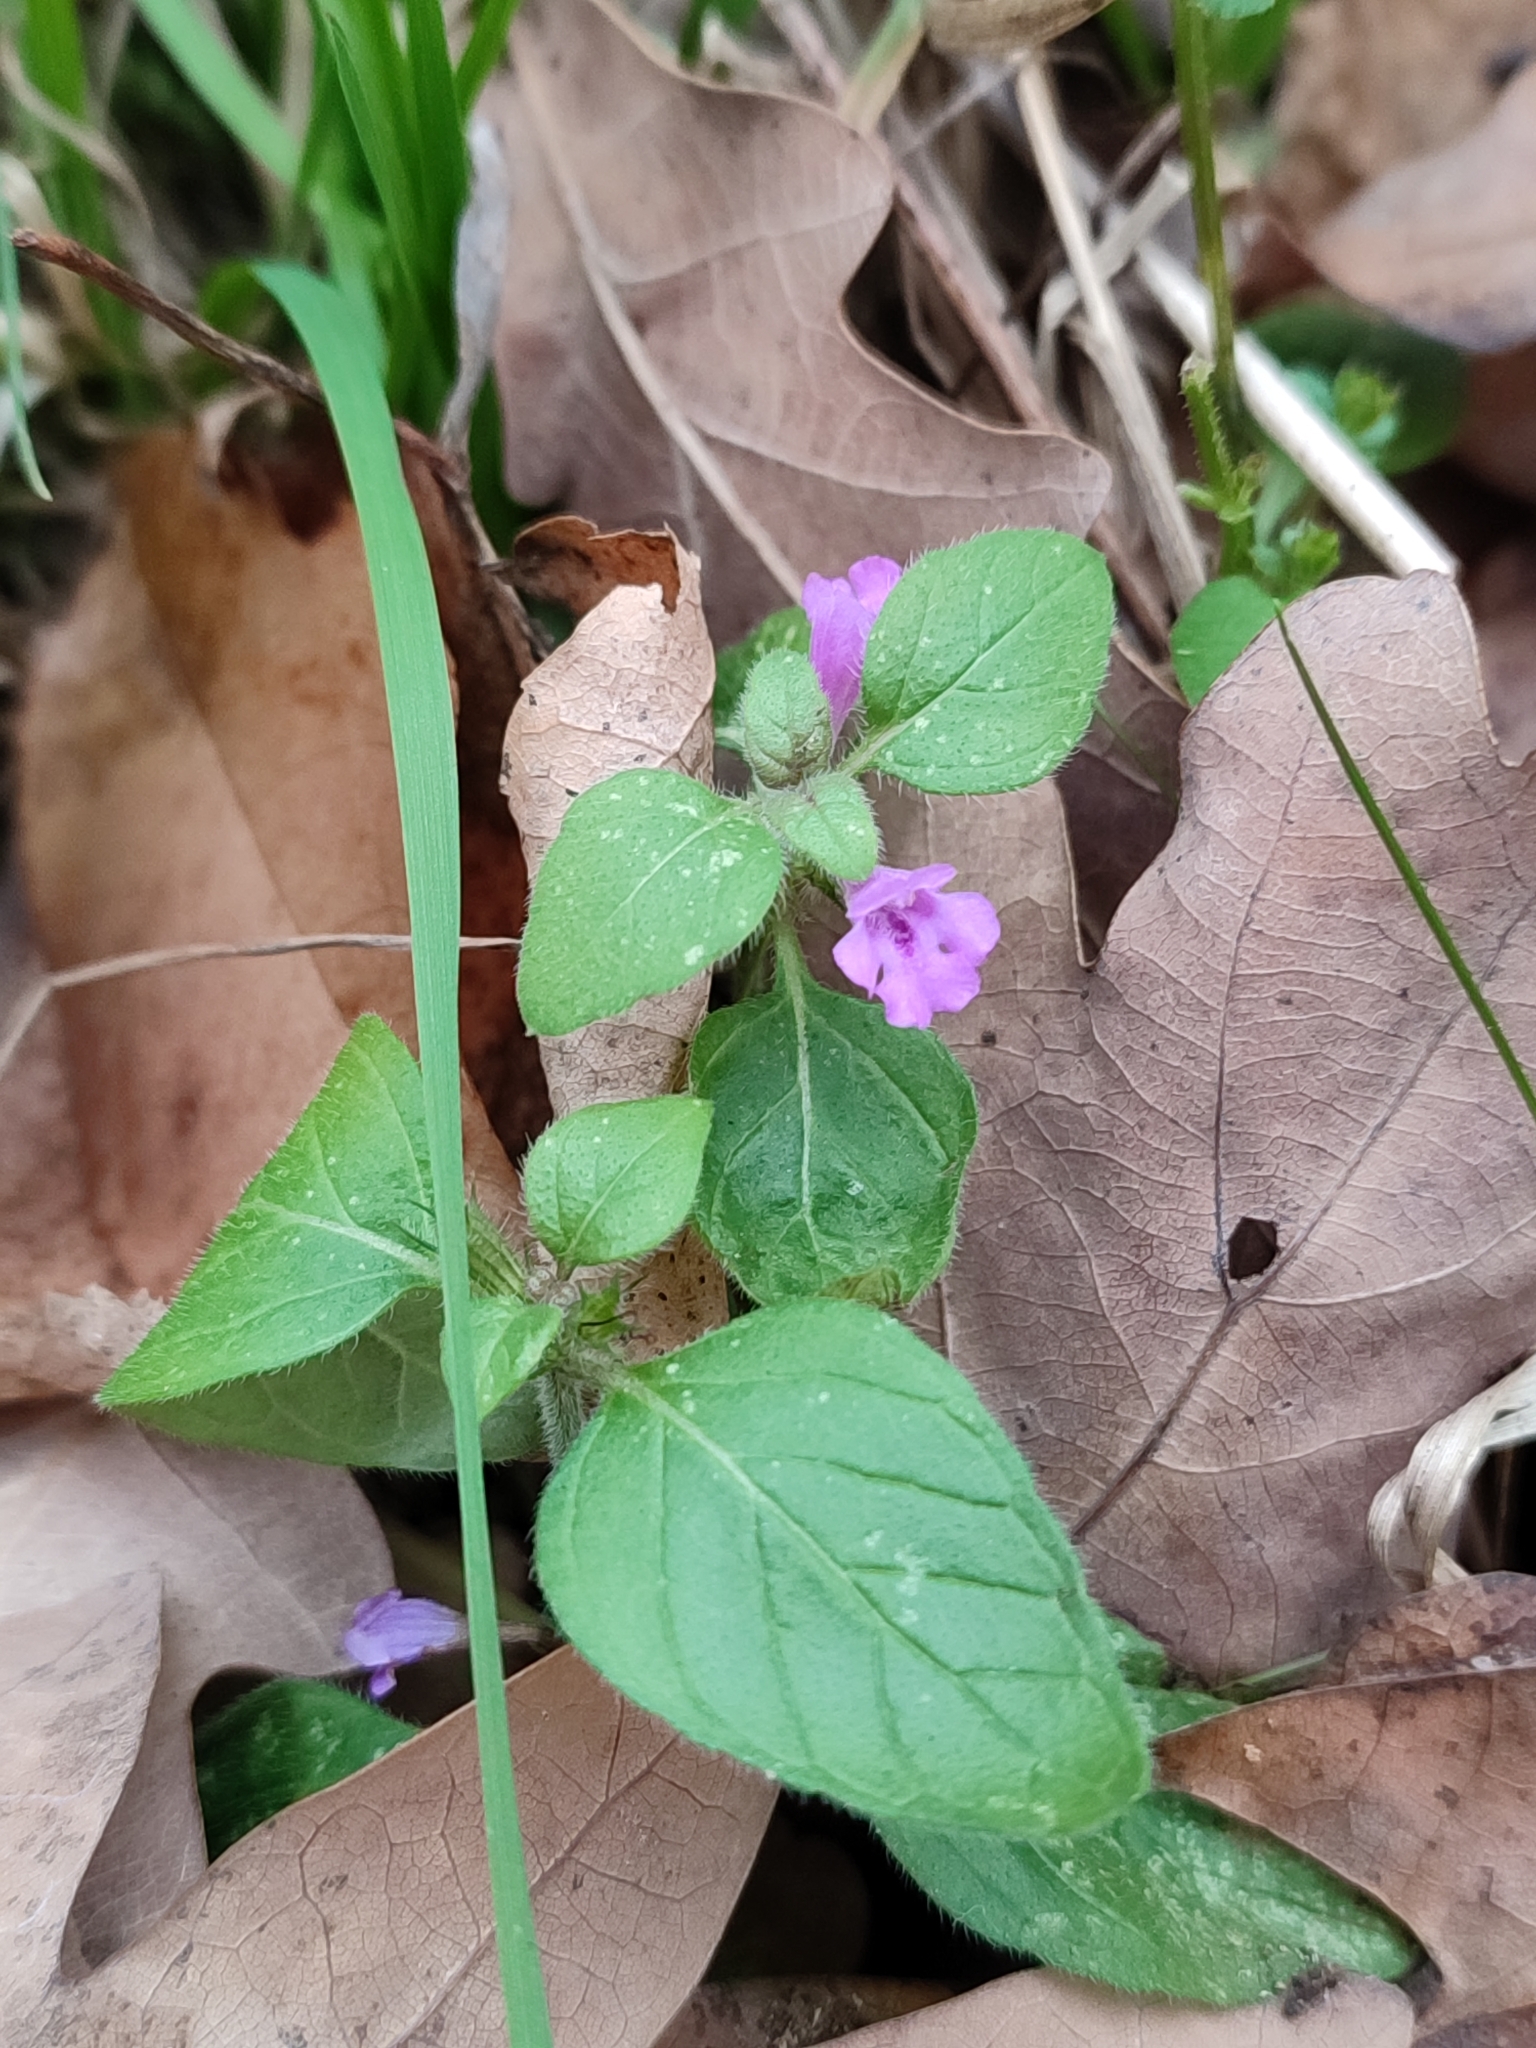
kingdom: Plantae
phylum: Tracheophyta
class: Magnoliopsida
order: Lamiales
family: Lamiaceae
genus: Clinopodium
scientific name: Clinopodium vulgare
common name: Wild basil
